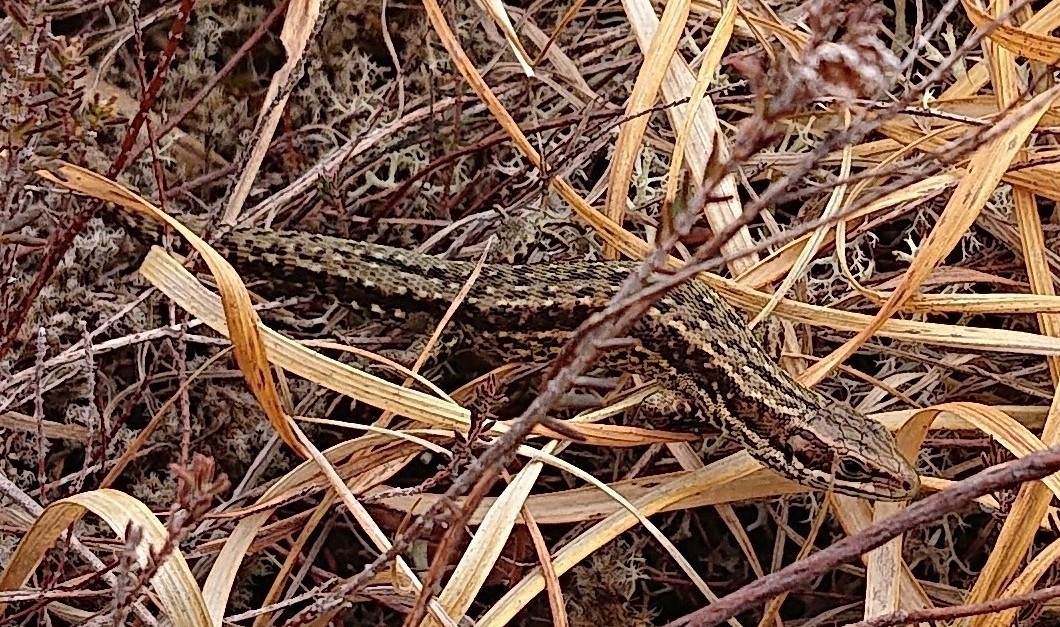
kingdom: Animalia
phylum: Chordata
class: Squamata
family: Lacertidae
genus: Zootoca
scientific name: Zootoca vivipara
